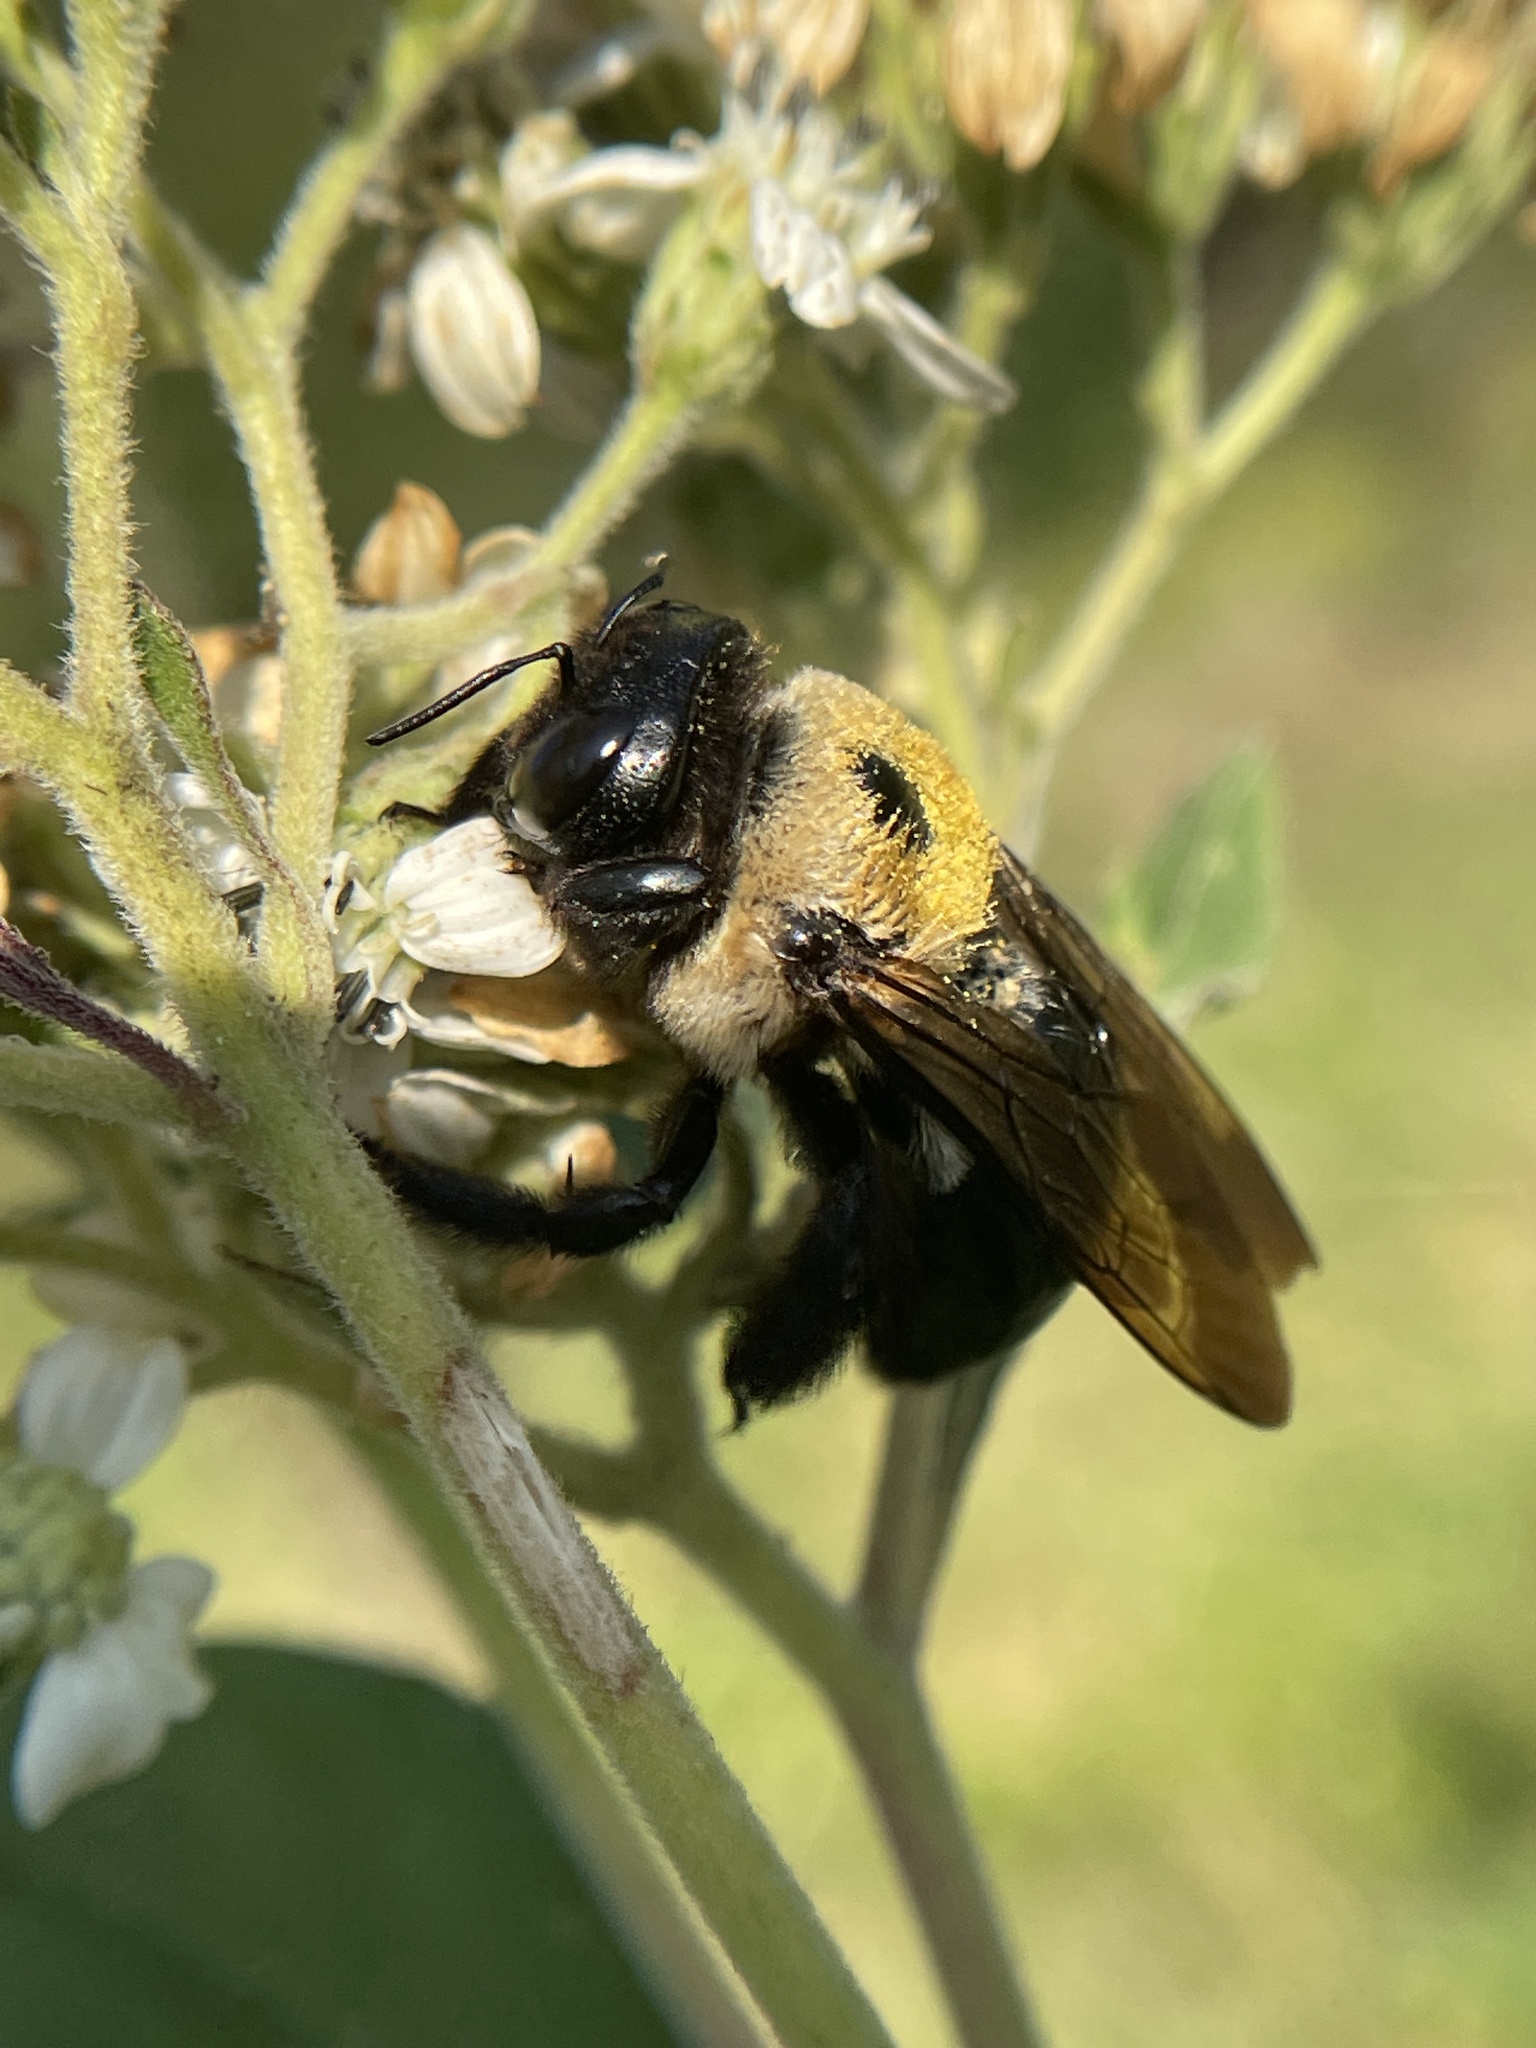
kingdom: Animalia
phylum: Arthropoda
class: Insecta
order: Hymenoptera
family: Apidae
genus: Xylocopa
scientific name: Xylocopa virginica
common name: Carpenter bee
